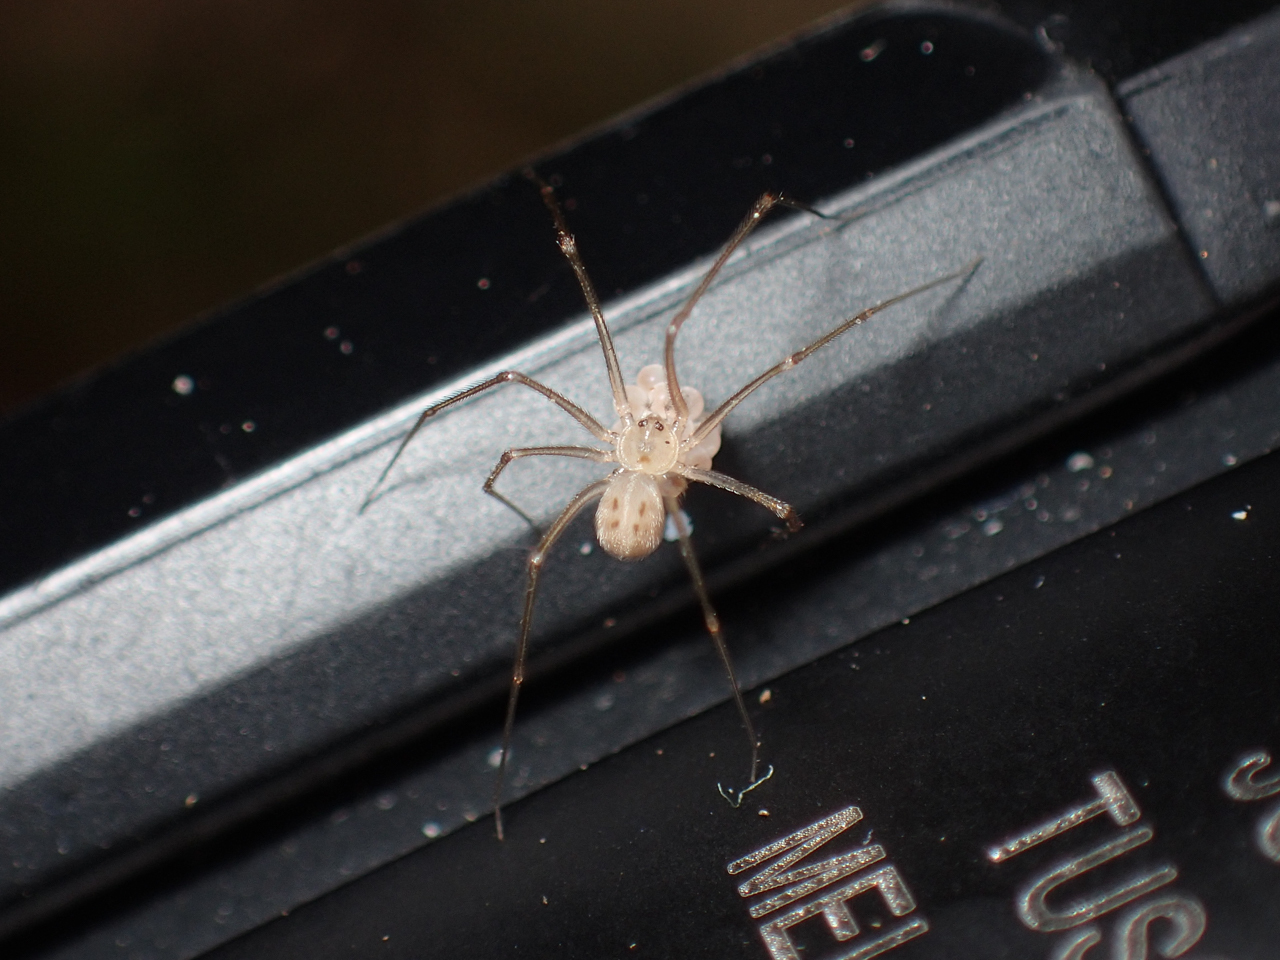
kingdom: Animalia
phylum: Arthropoda
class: Arachnida
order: Araneae
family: Pholcidae
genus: Spermophora
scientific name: Spermophora senoculata
